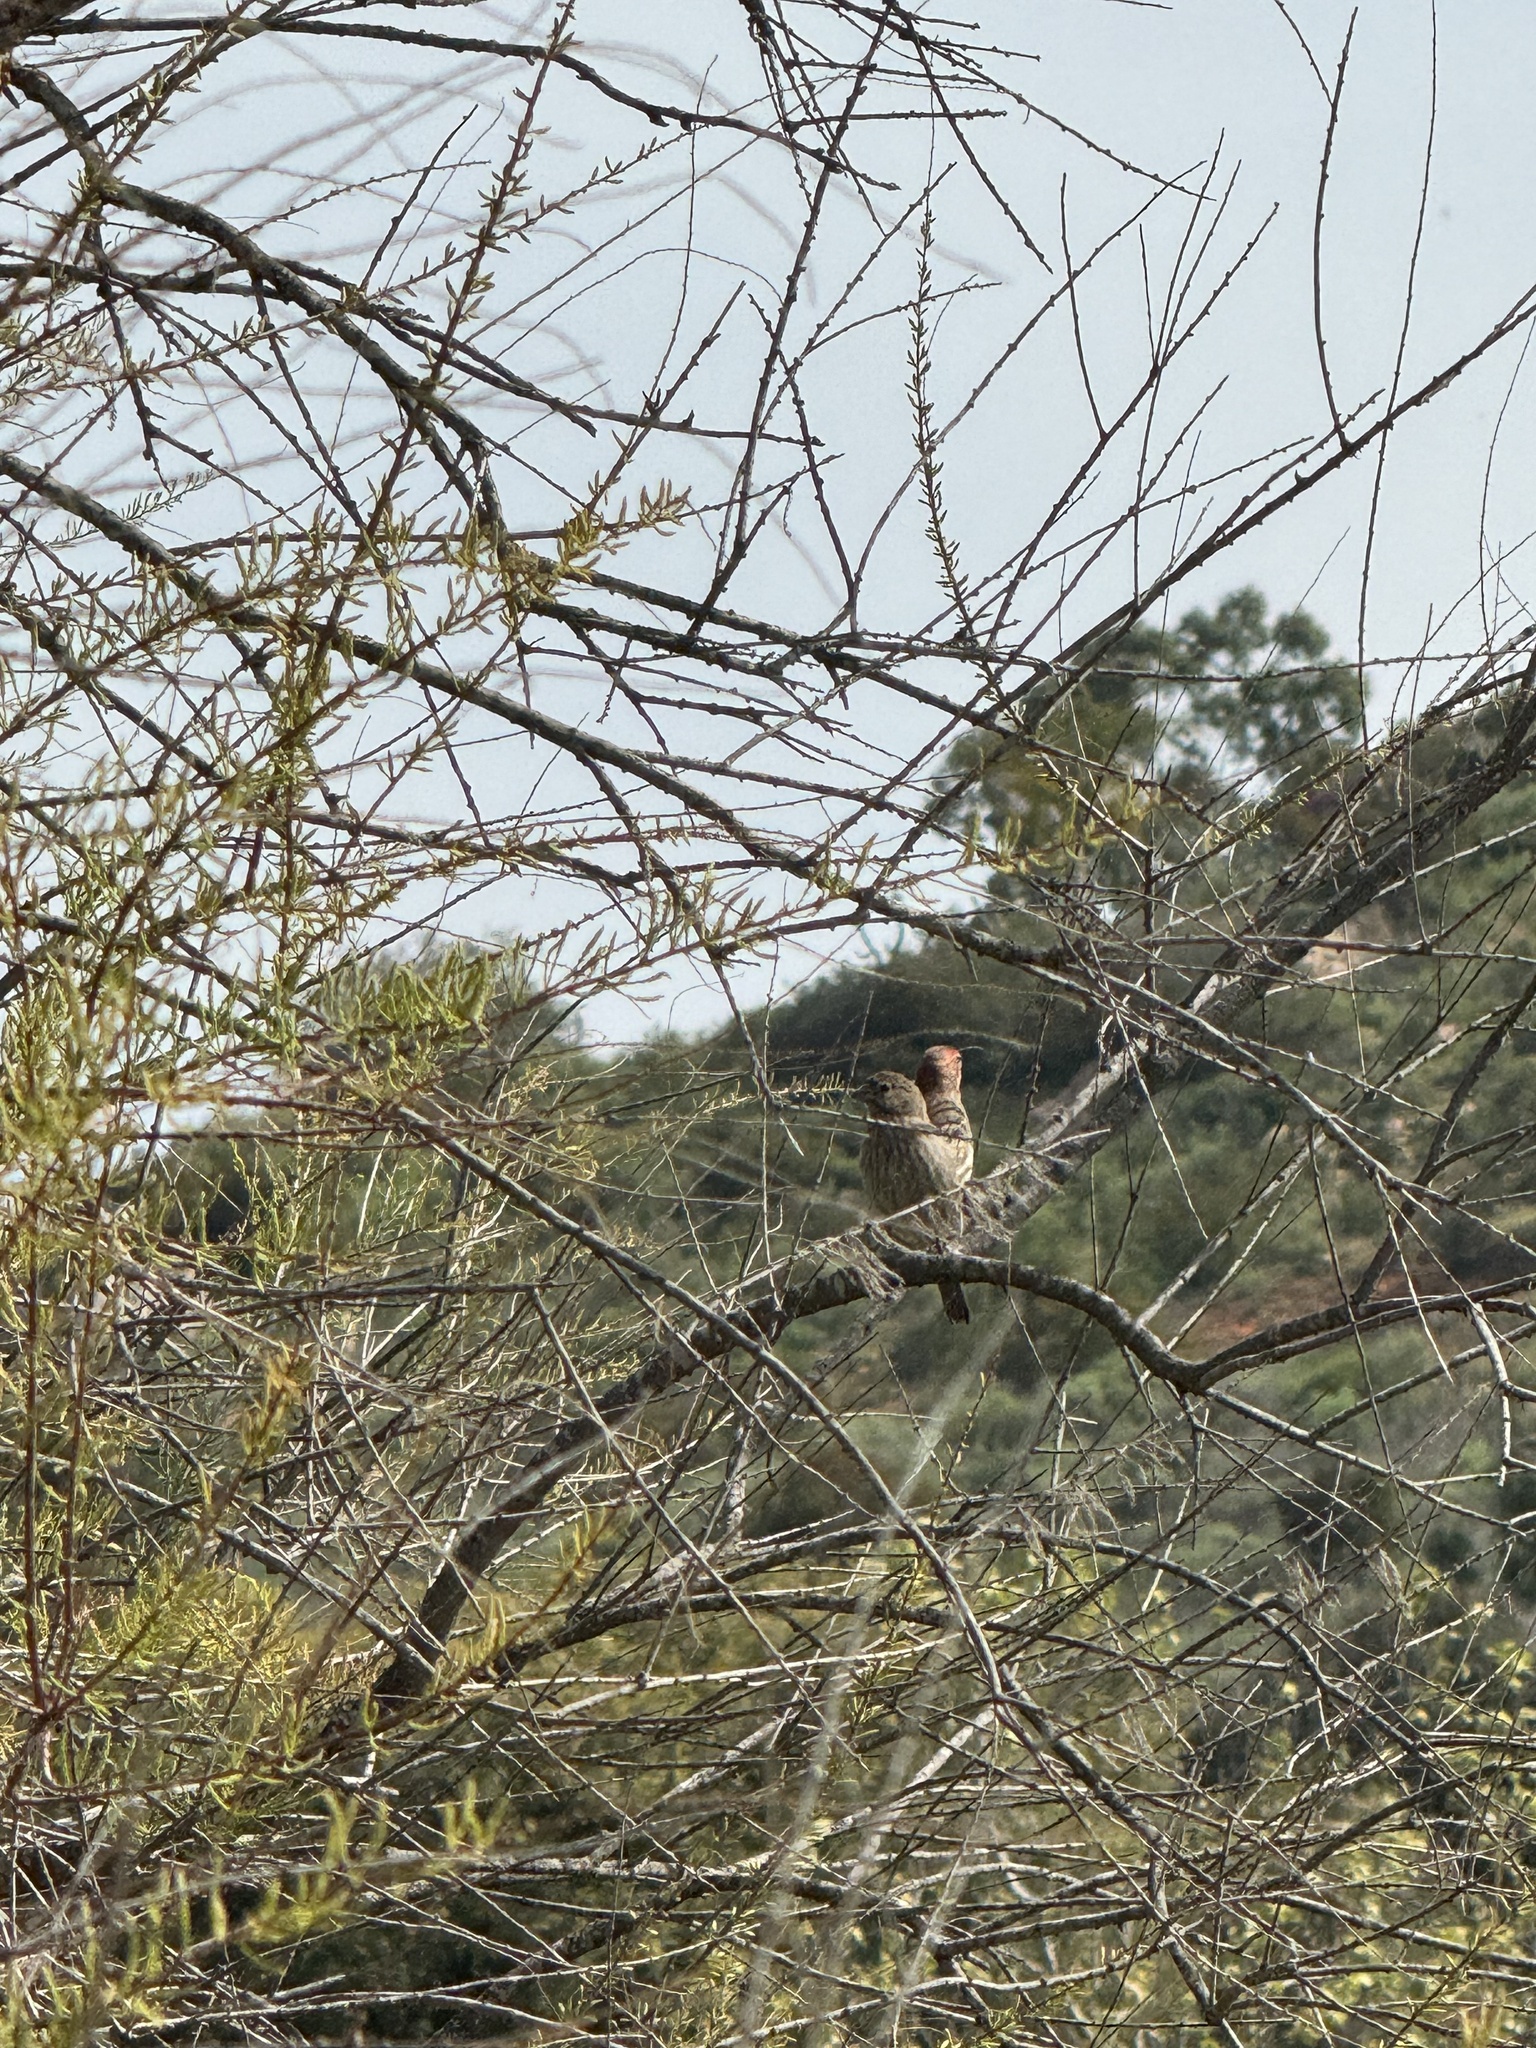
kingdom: Animalia
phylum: Chordata
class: Aves
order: Passeriformes
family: Fringillidae
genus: Haemorhous
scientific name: Haemorhous mexicanus
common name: House finch
